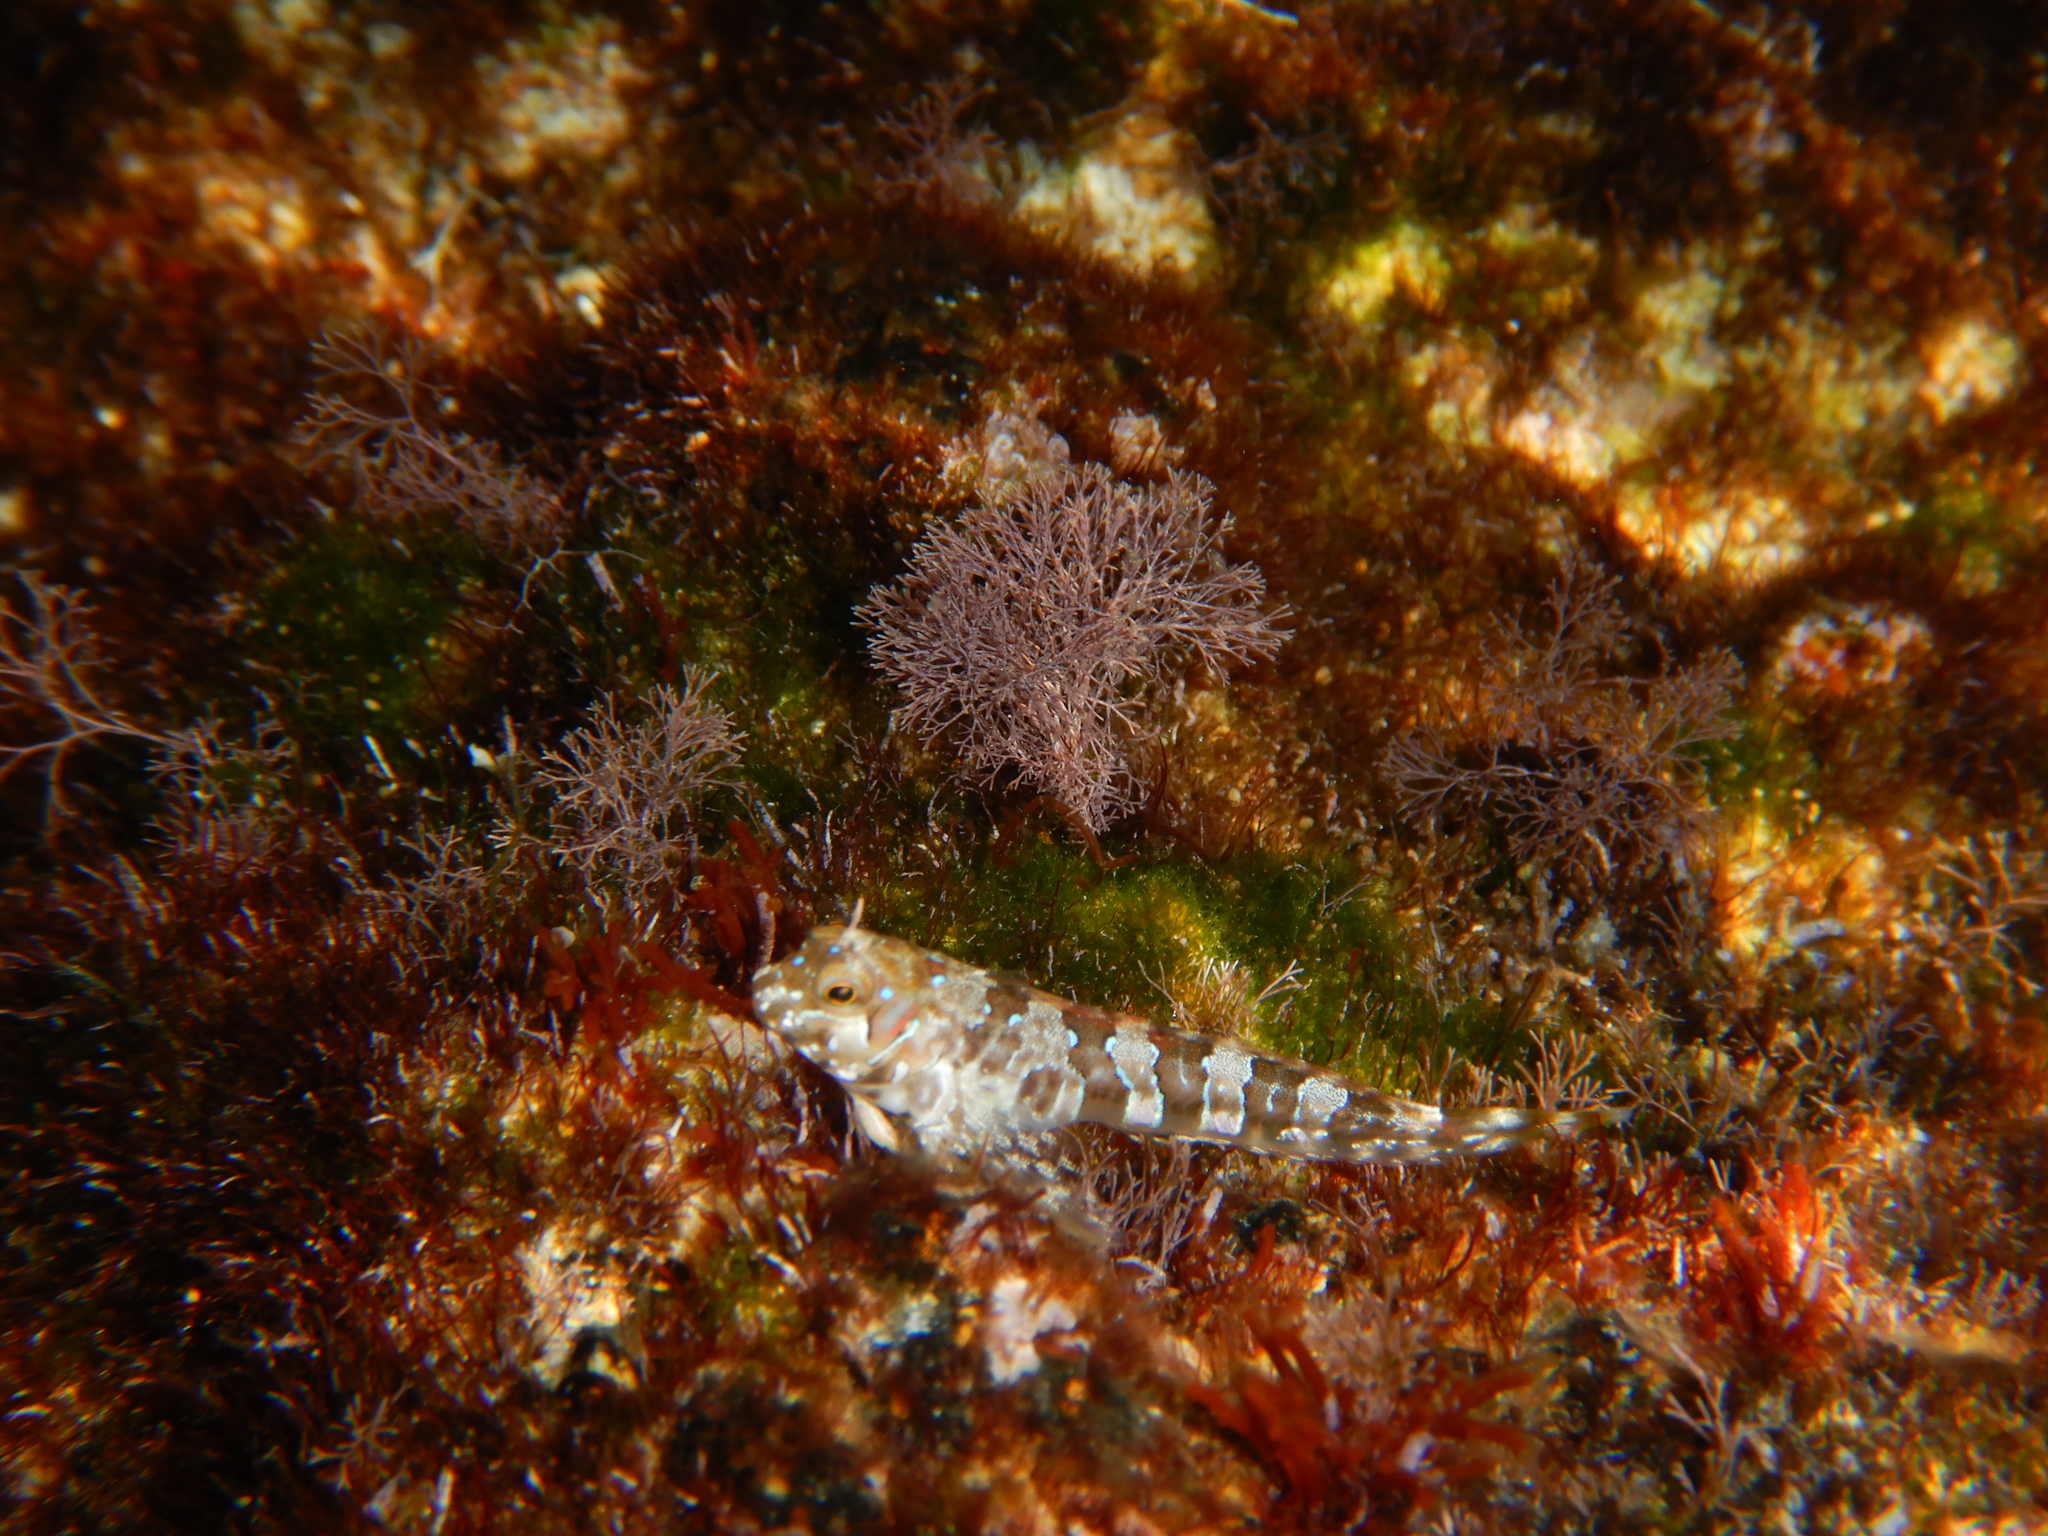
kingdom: Animalia
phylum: Chordata
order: Perciformes
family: Blenniidae
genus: Aidablennius
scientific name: Aidablennius sphynx
